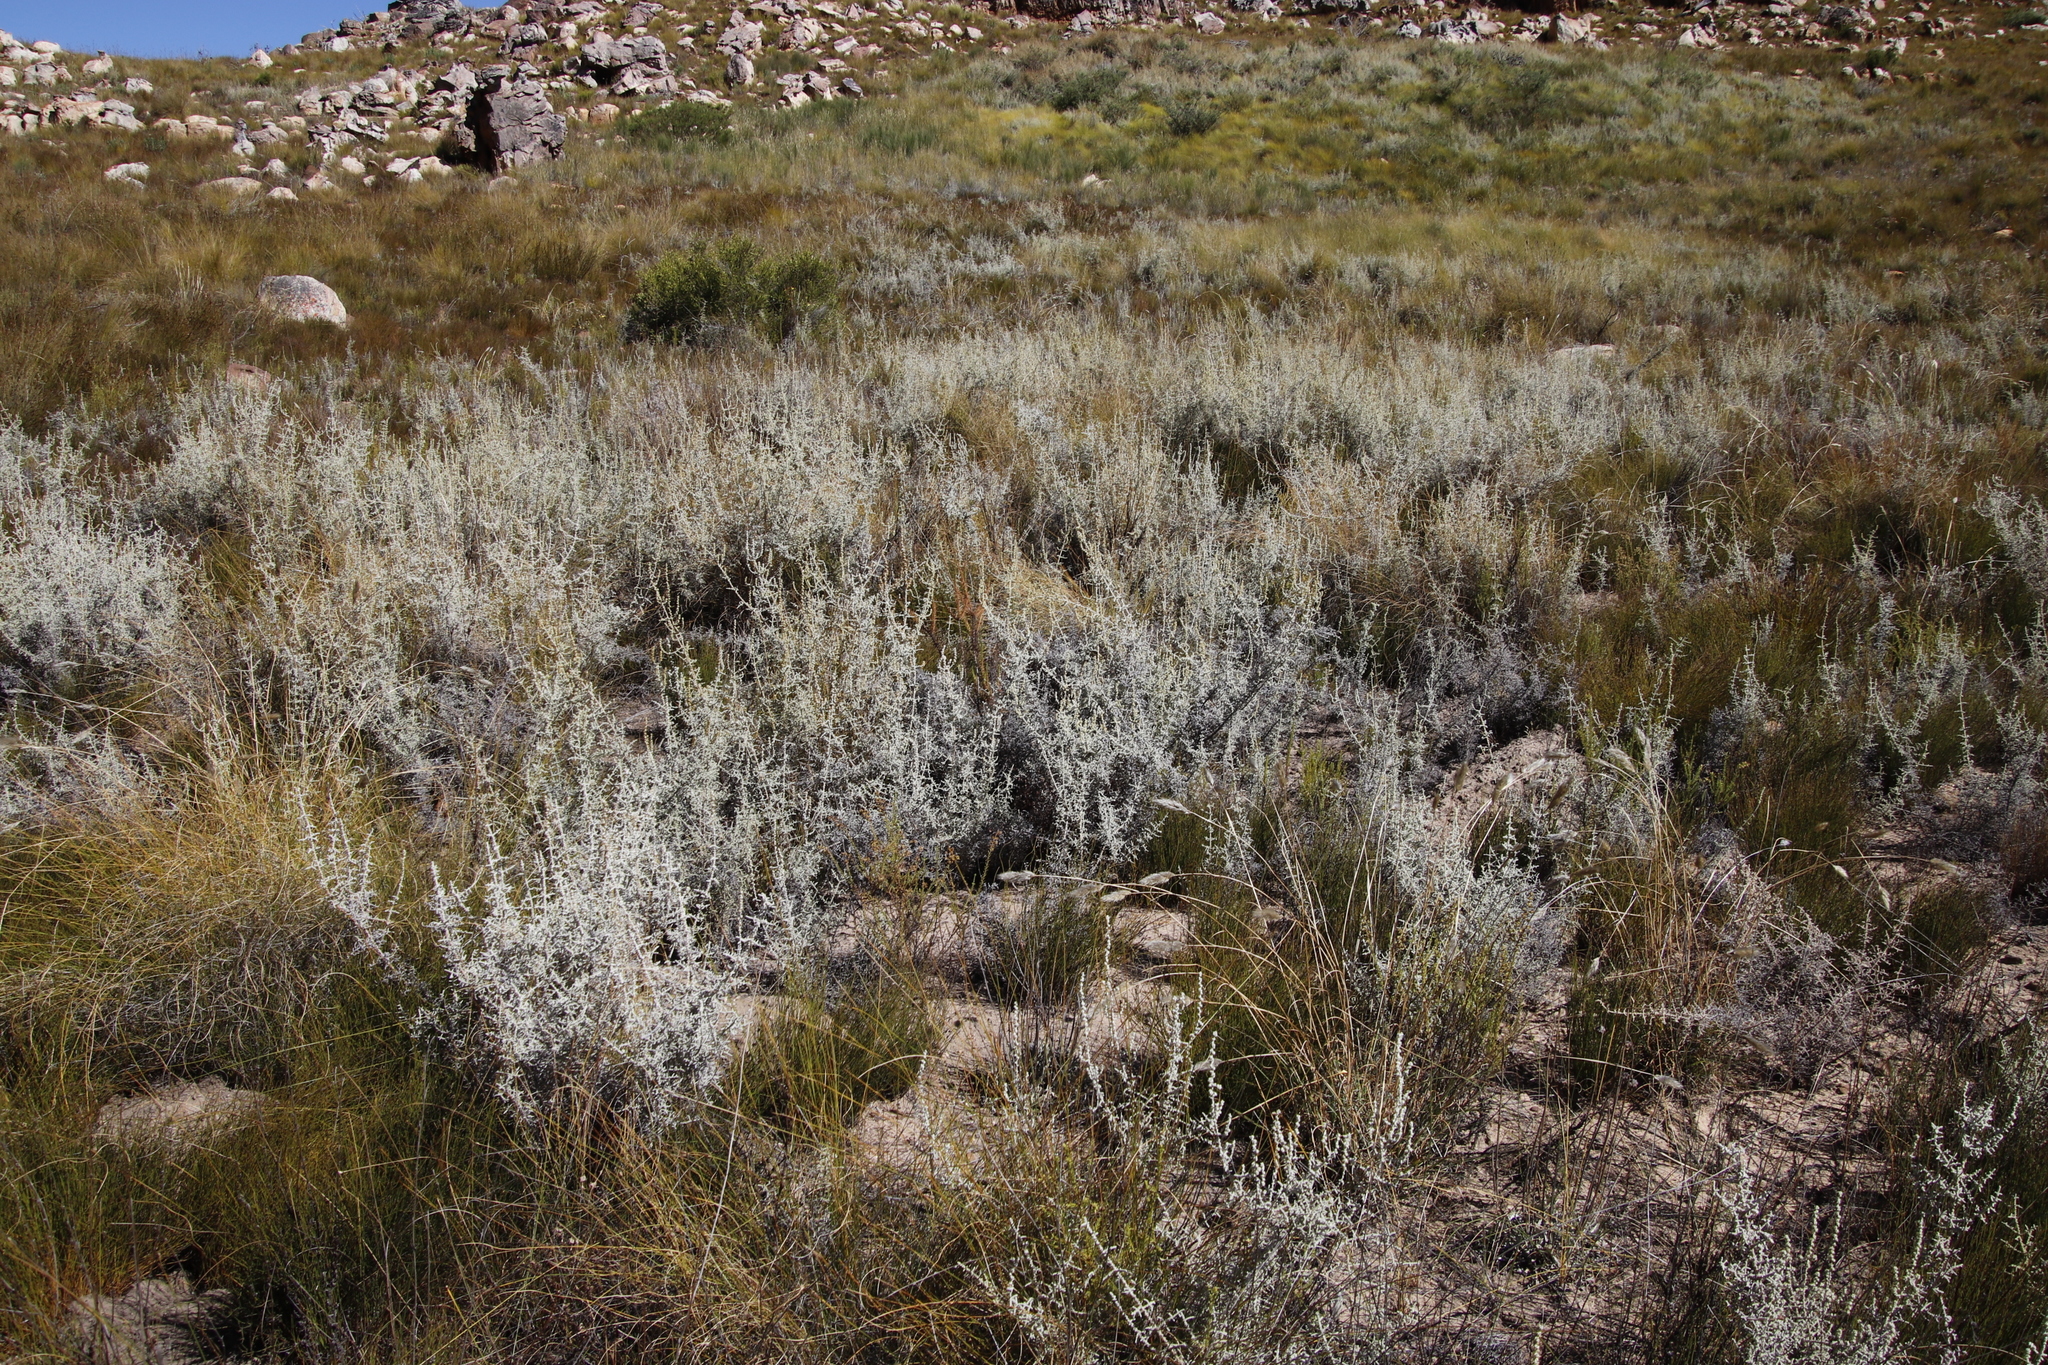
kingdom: Plantae
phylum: Tracheophyta
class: Magnoliopsida
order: Asterales
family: Asteraceae
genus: Seriphium
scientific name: Seriphium plumosum
